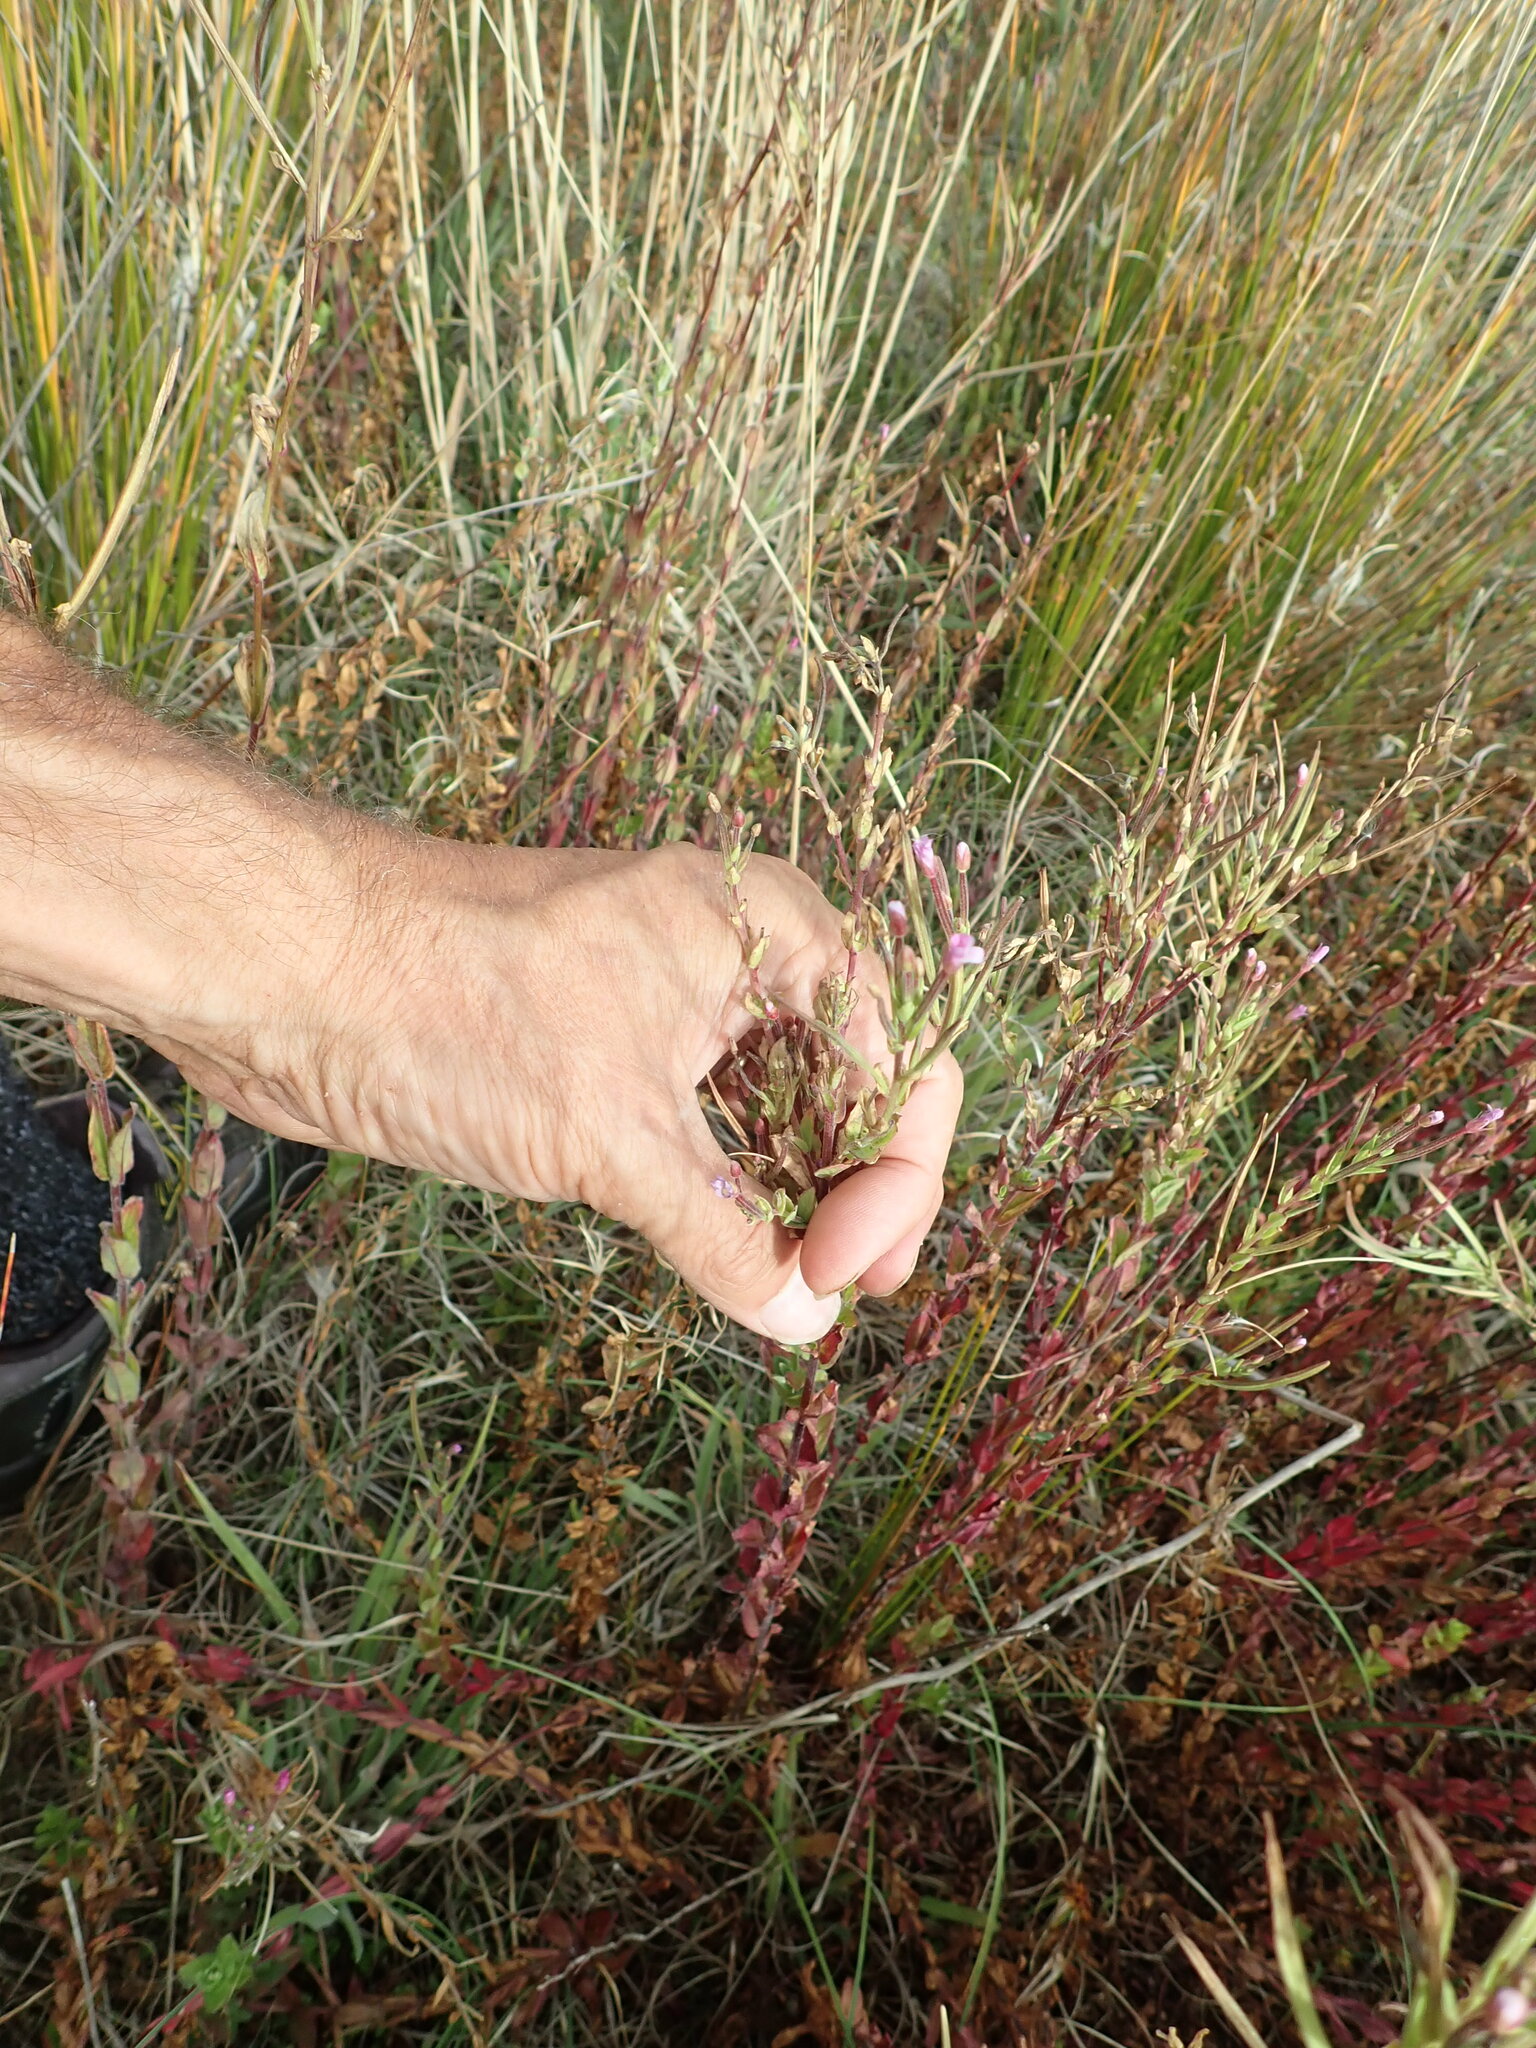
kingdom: Plantae
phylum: Tracheophyta
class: Magnoliopsida
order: Myrtales
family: Onagraceae
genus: Epilobium
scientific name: Epilobium billardiereanum
